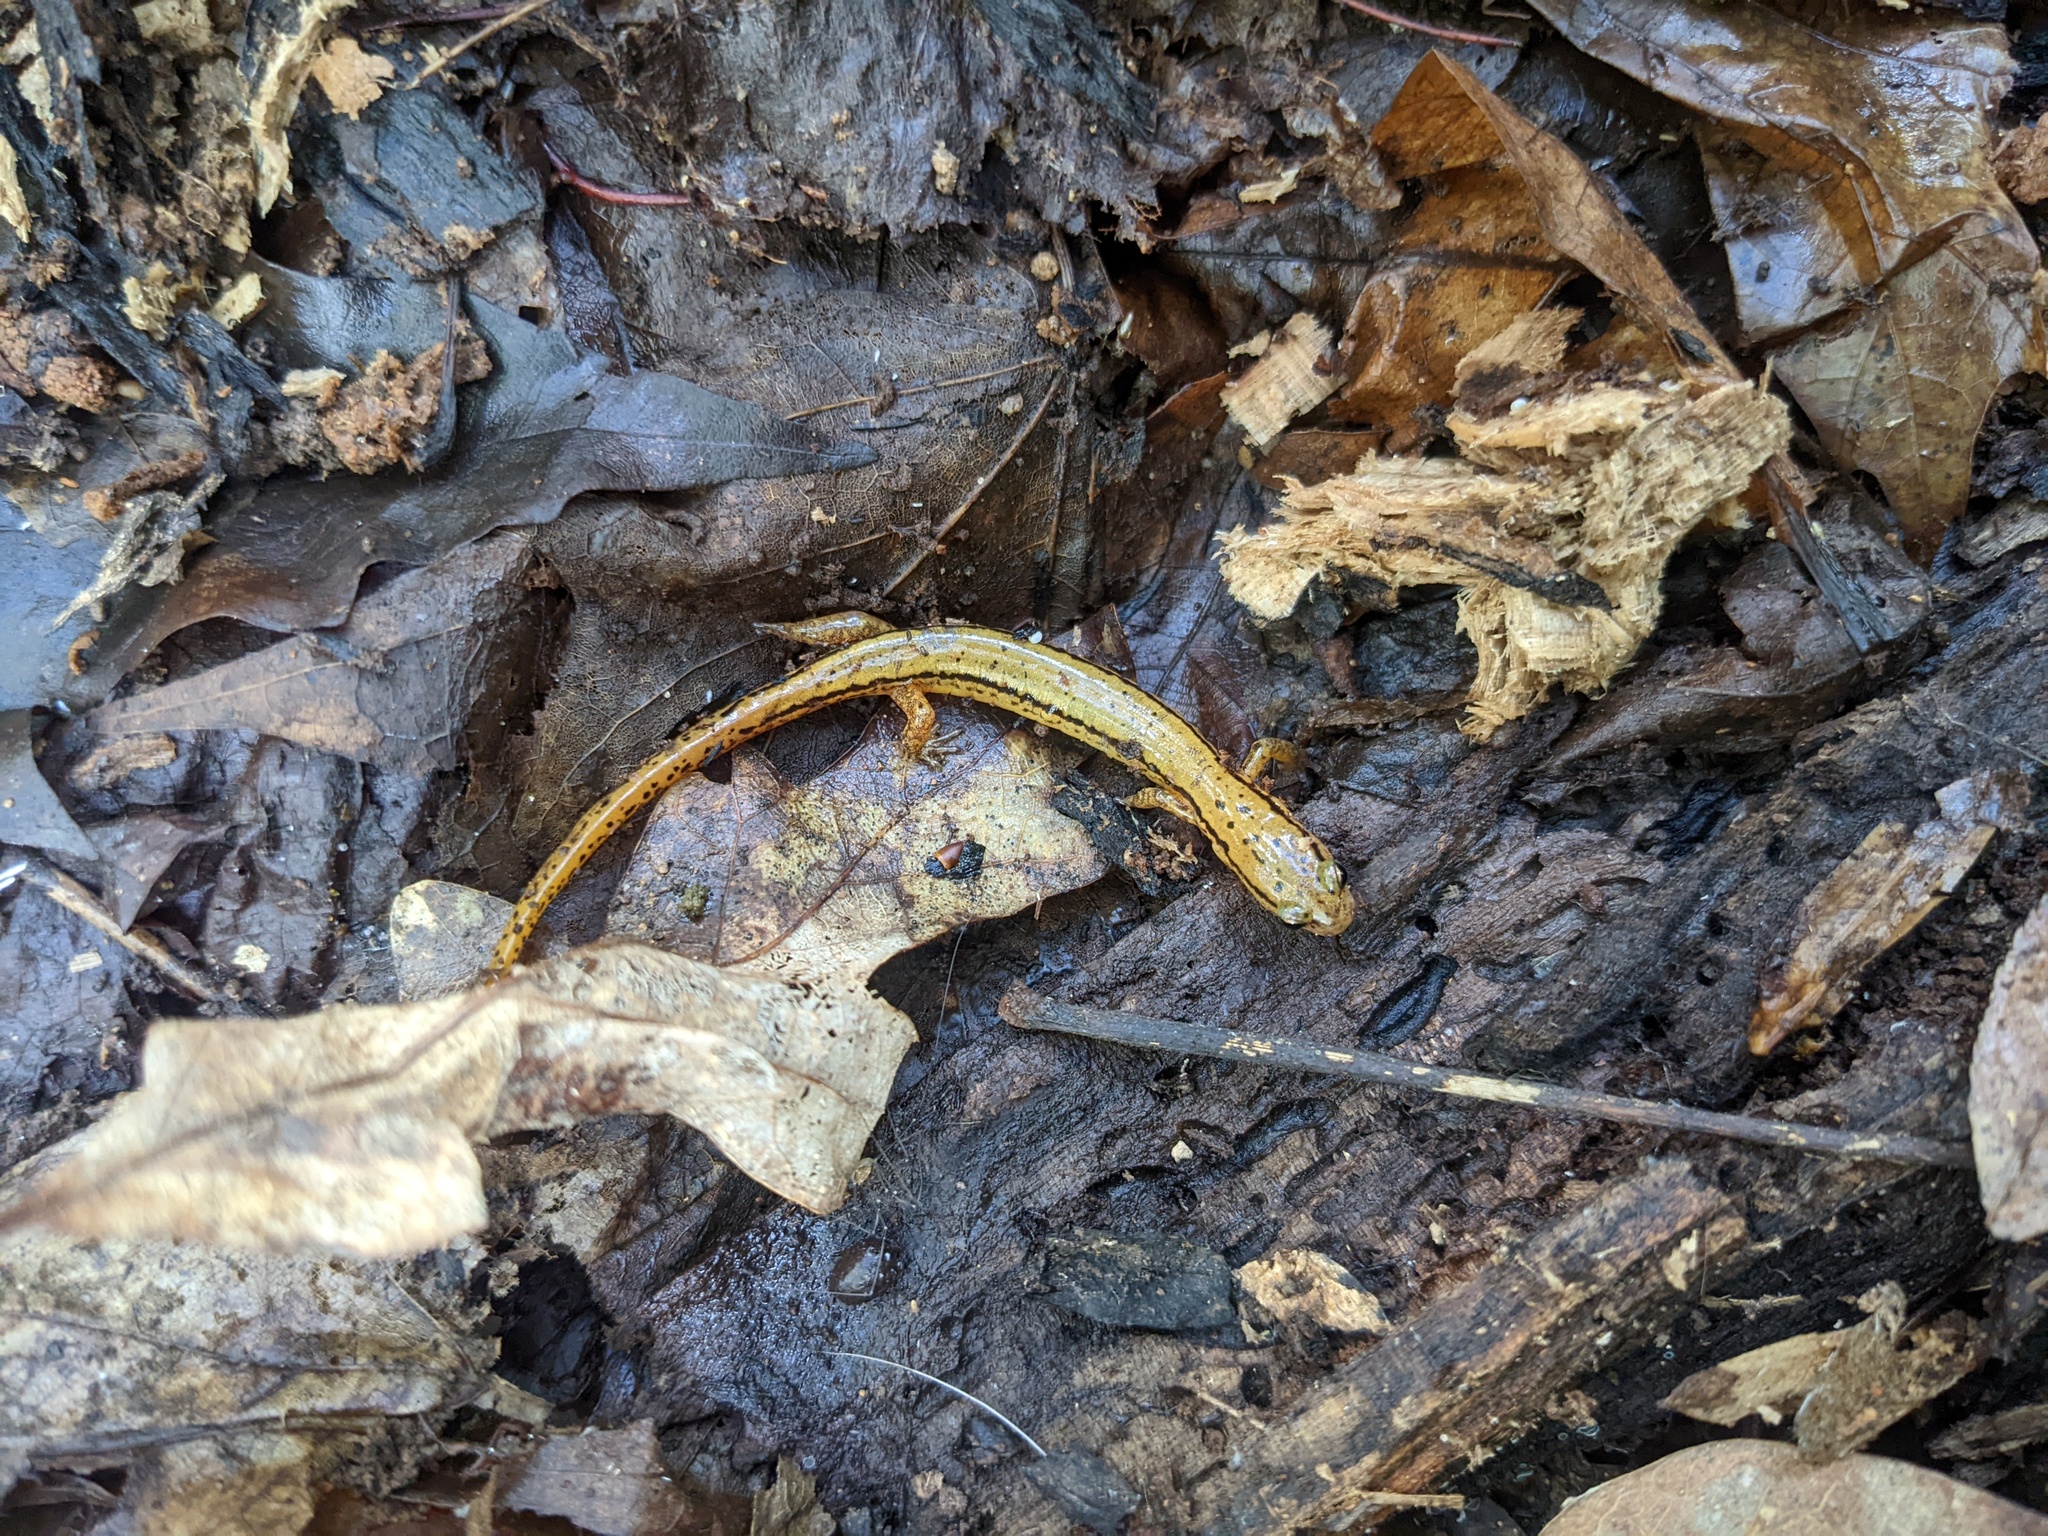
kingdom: Animalia
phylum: Chordata
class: Amphibia
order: Caudata
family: Plethodontidae
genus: Eurycea
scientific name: Eurycea bislineata
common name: Northern two-lined salamander
